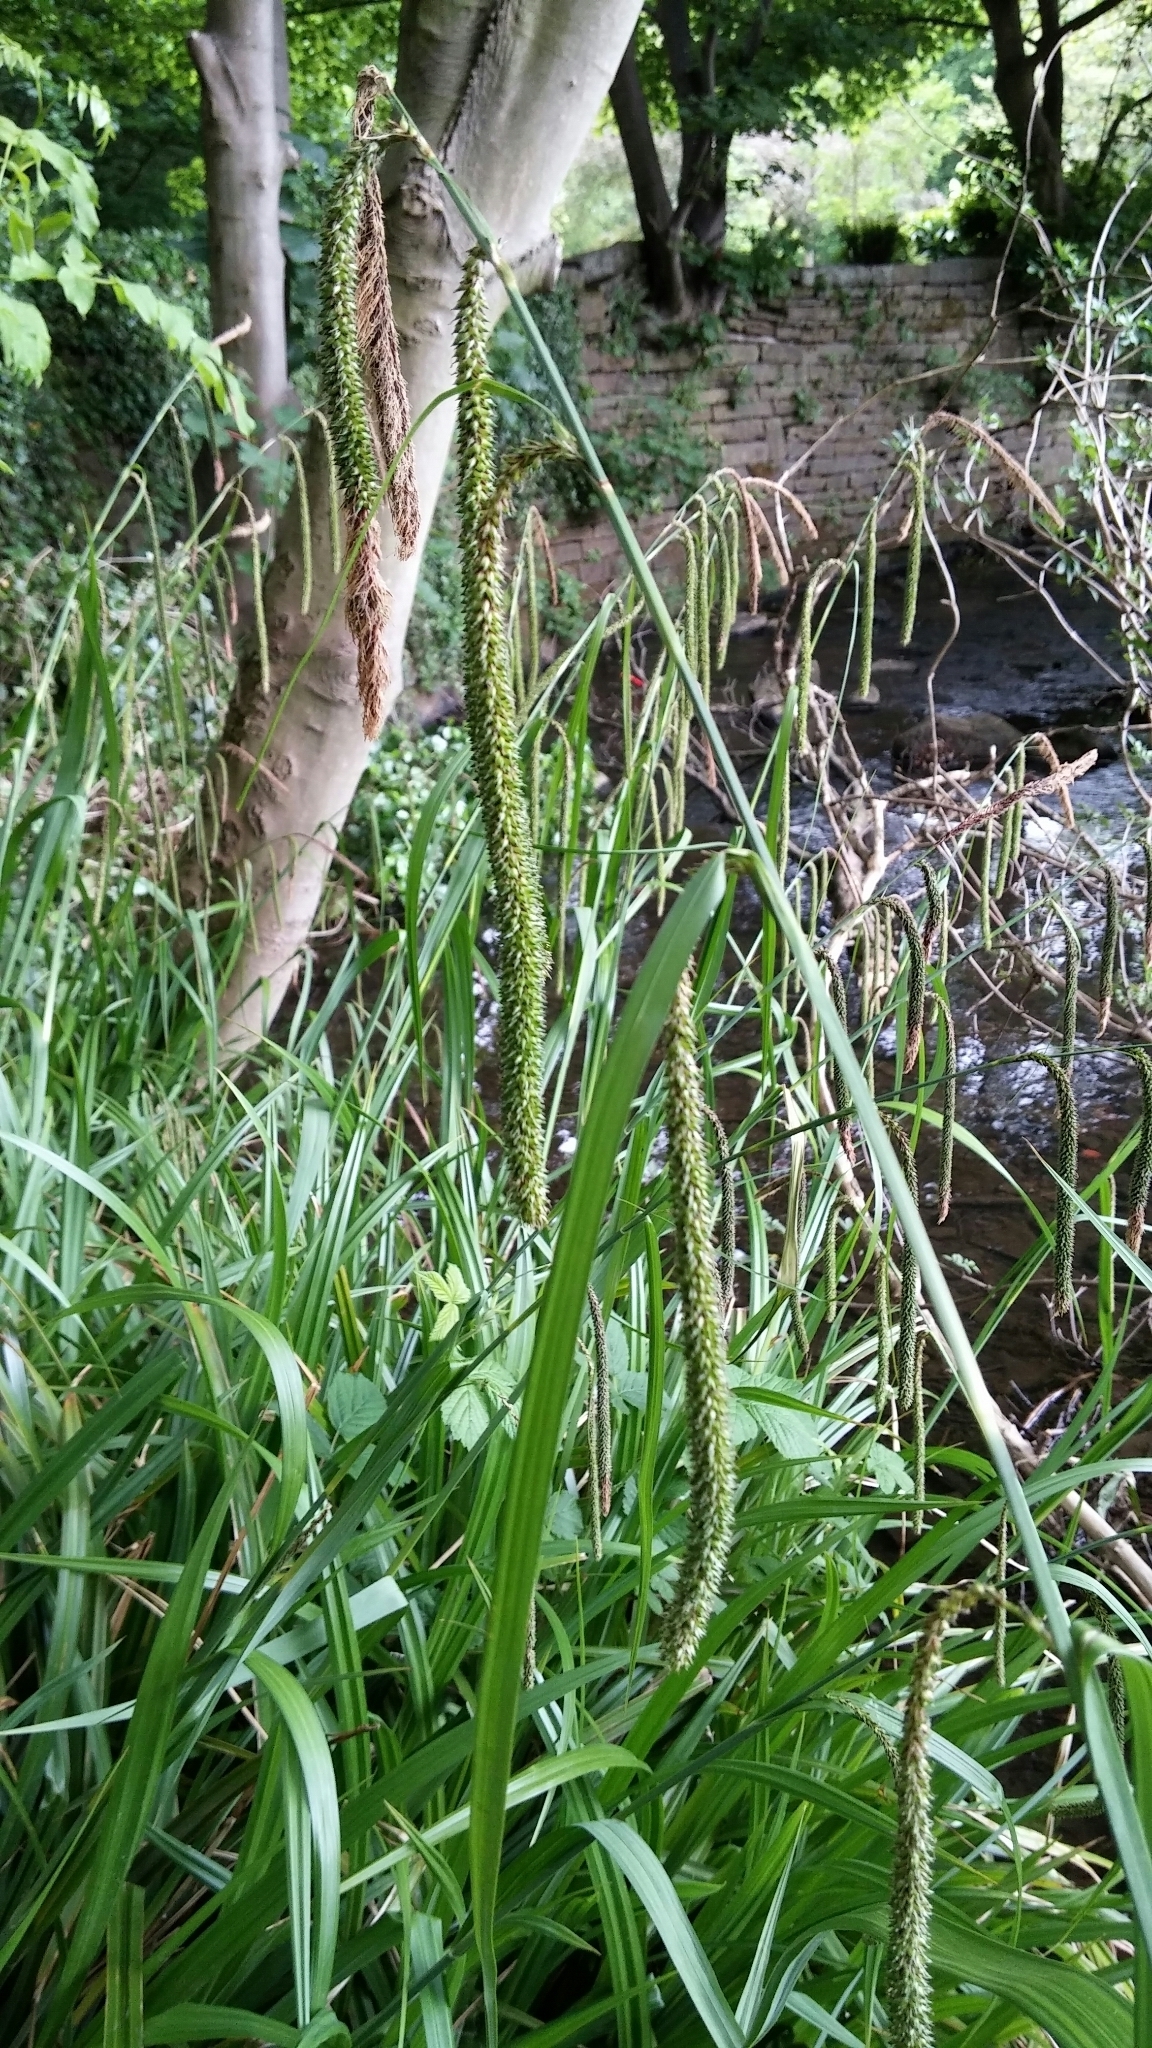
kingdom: Plantae
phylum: Tracheophyta
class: Liliopsida
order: Poales
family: Cyperaceae
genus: Carex
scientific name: Carex pendula
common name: Pendulous sedge
